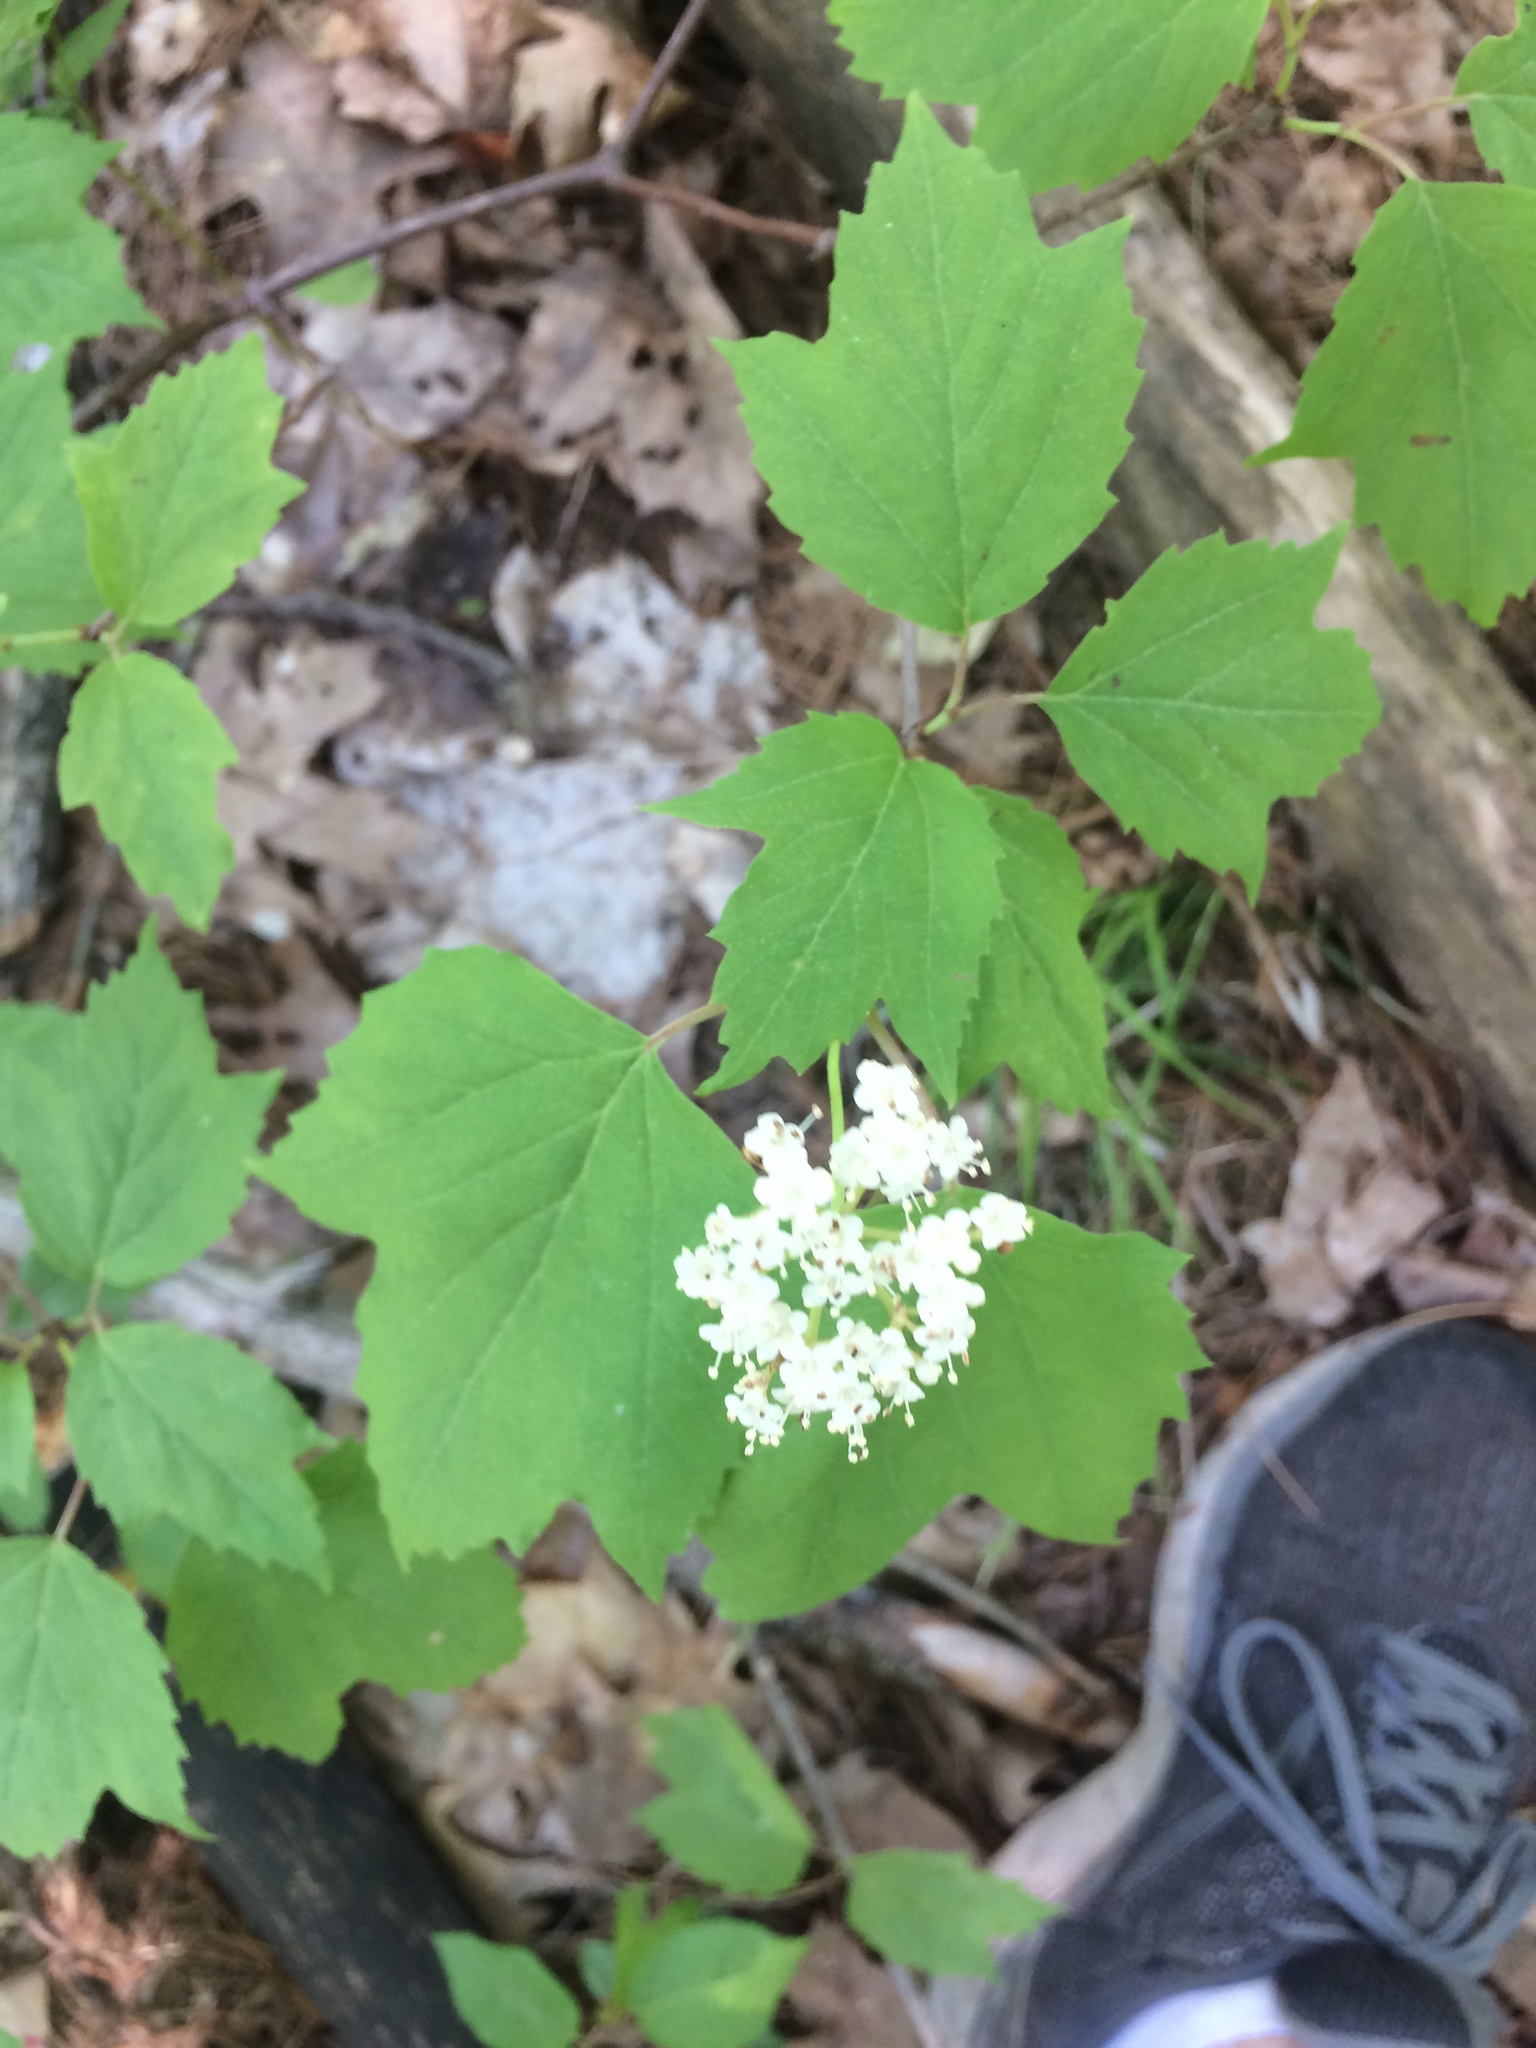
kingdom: Plantae
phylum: Tracheophyta
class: Magnoliopsida
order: Dipsacales
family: Viburnaceae
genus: Viburnum
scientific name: Viburnum acerifolium
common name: Dockmackie
